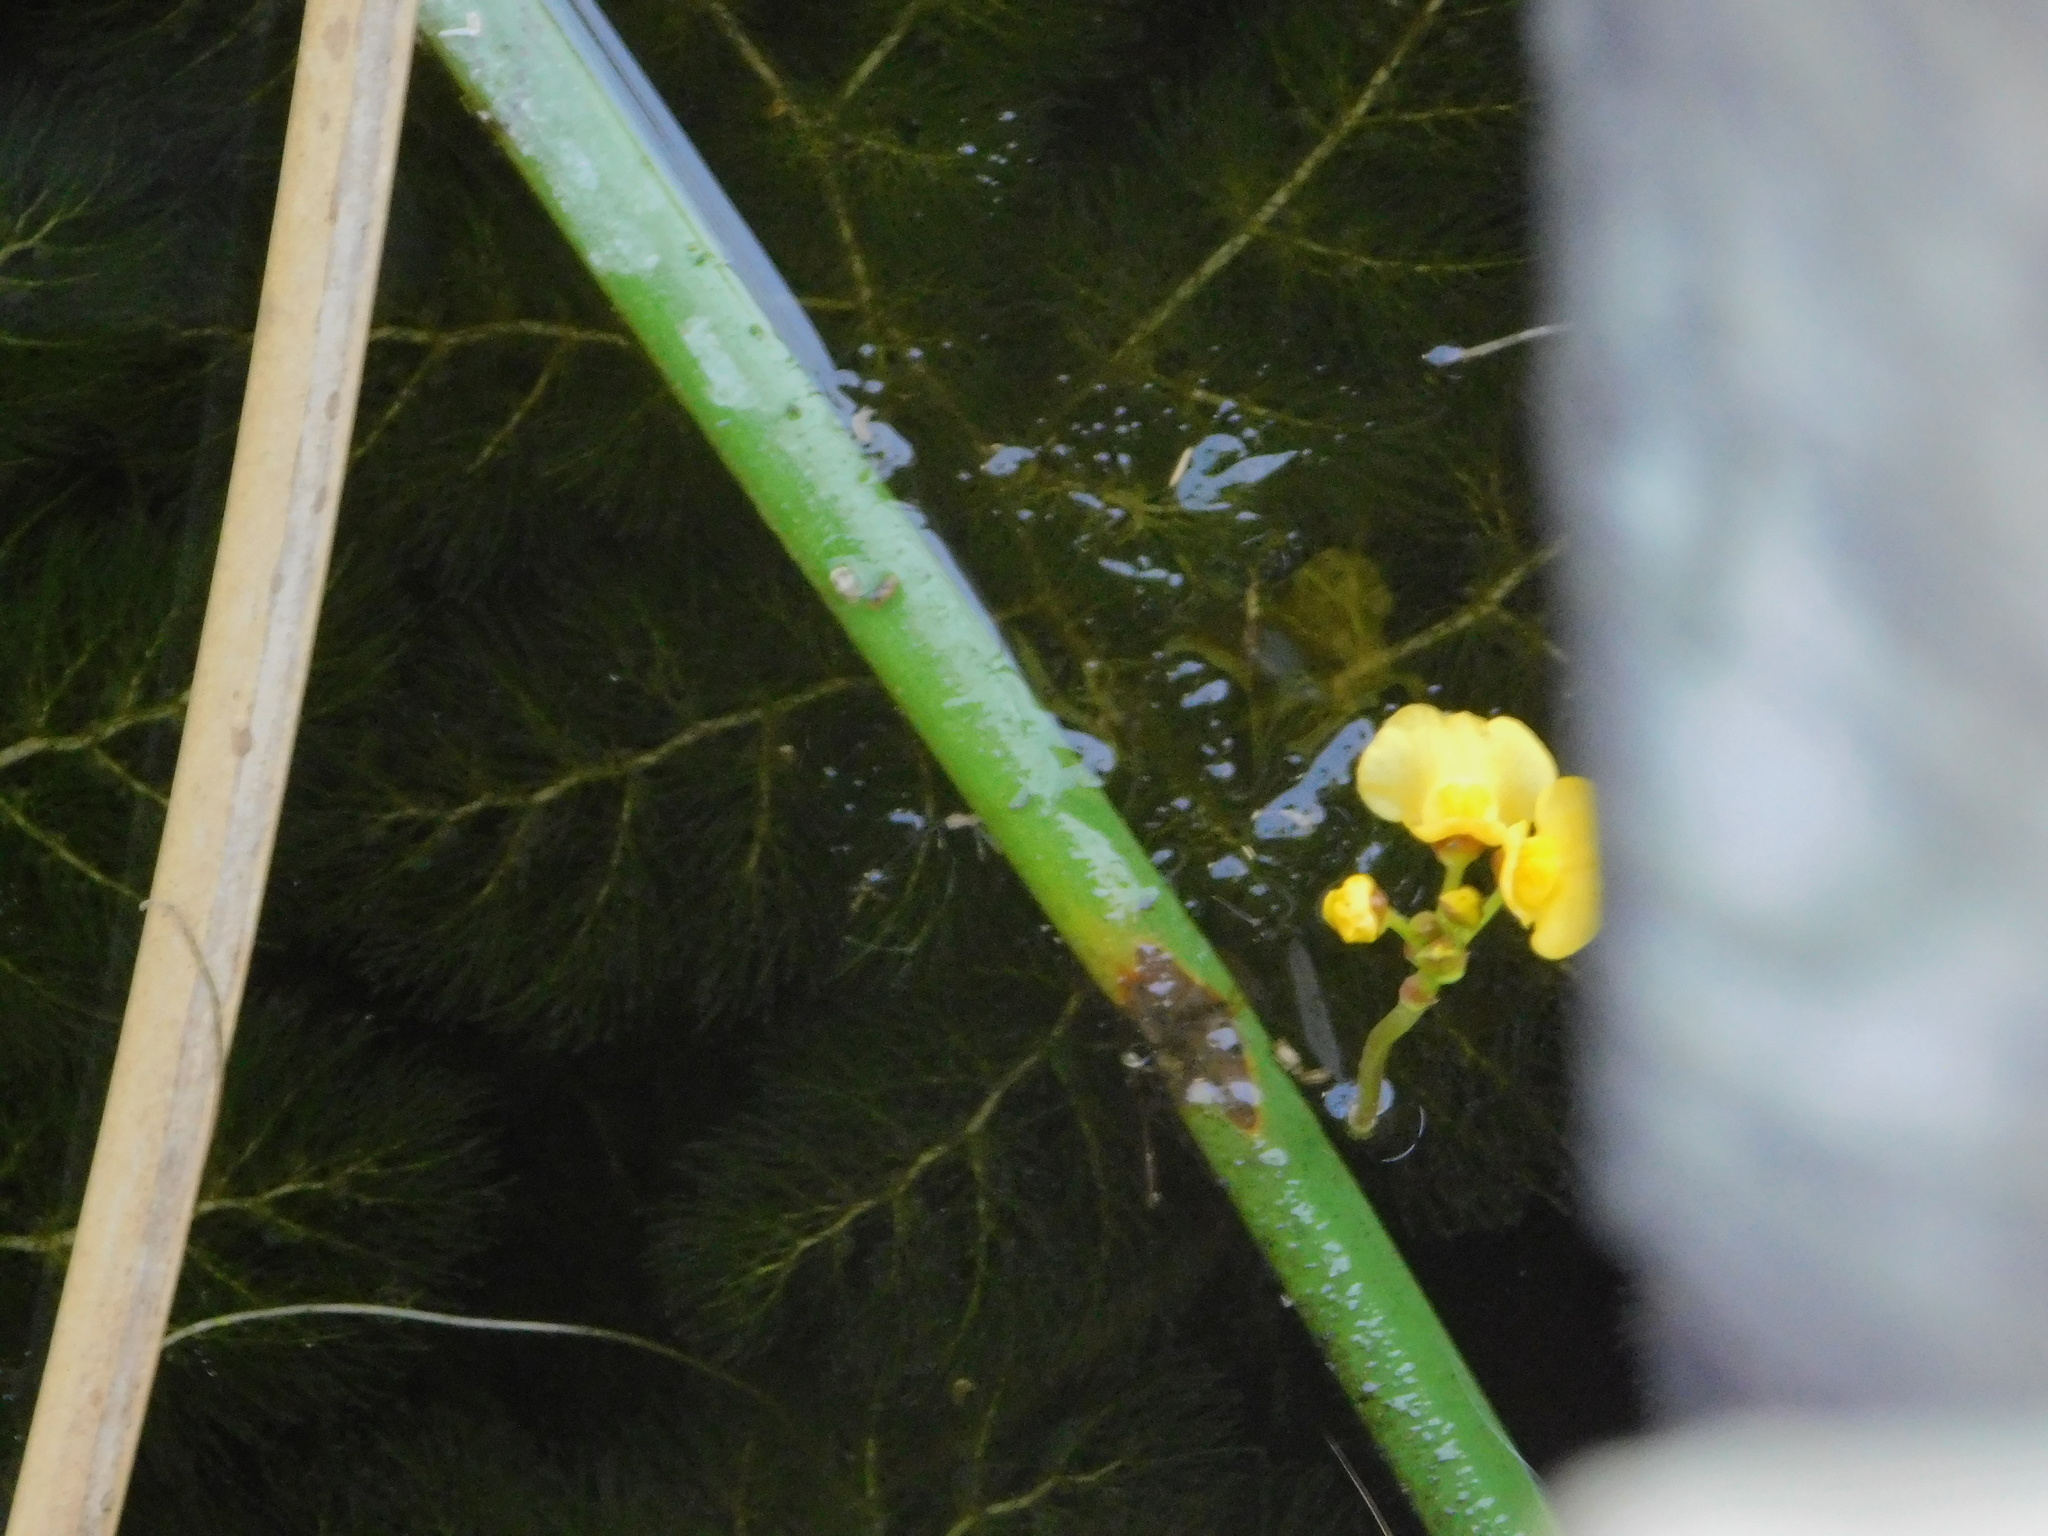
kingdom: Plantae
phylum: Tracheophyta
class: Magnoliopsida
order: Lamiales
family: Lentibulariaceae
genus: Utricularia
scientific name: Utricularia foliosa
